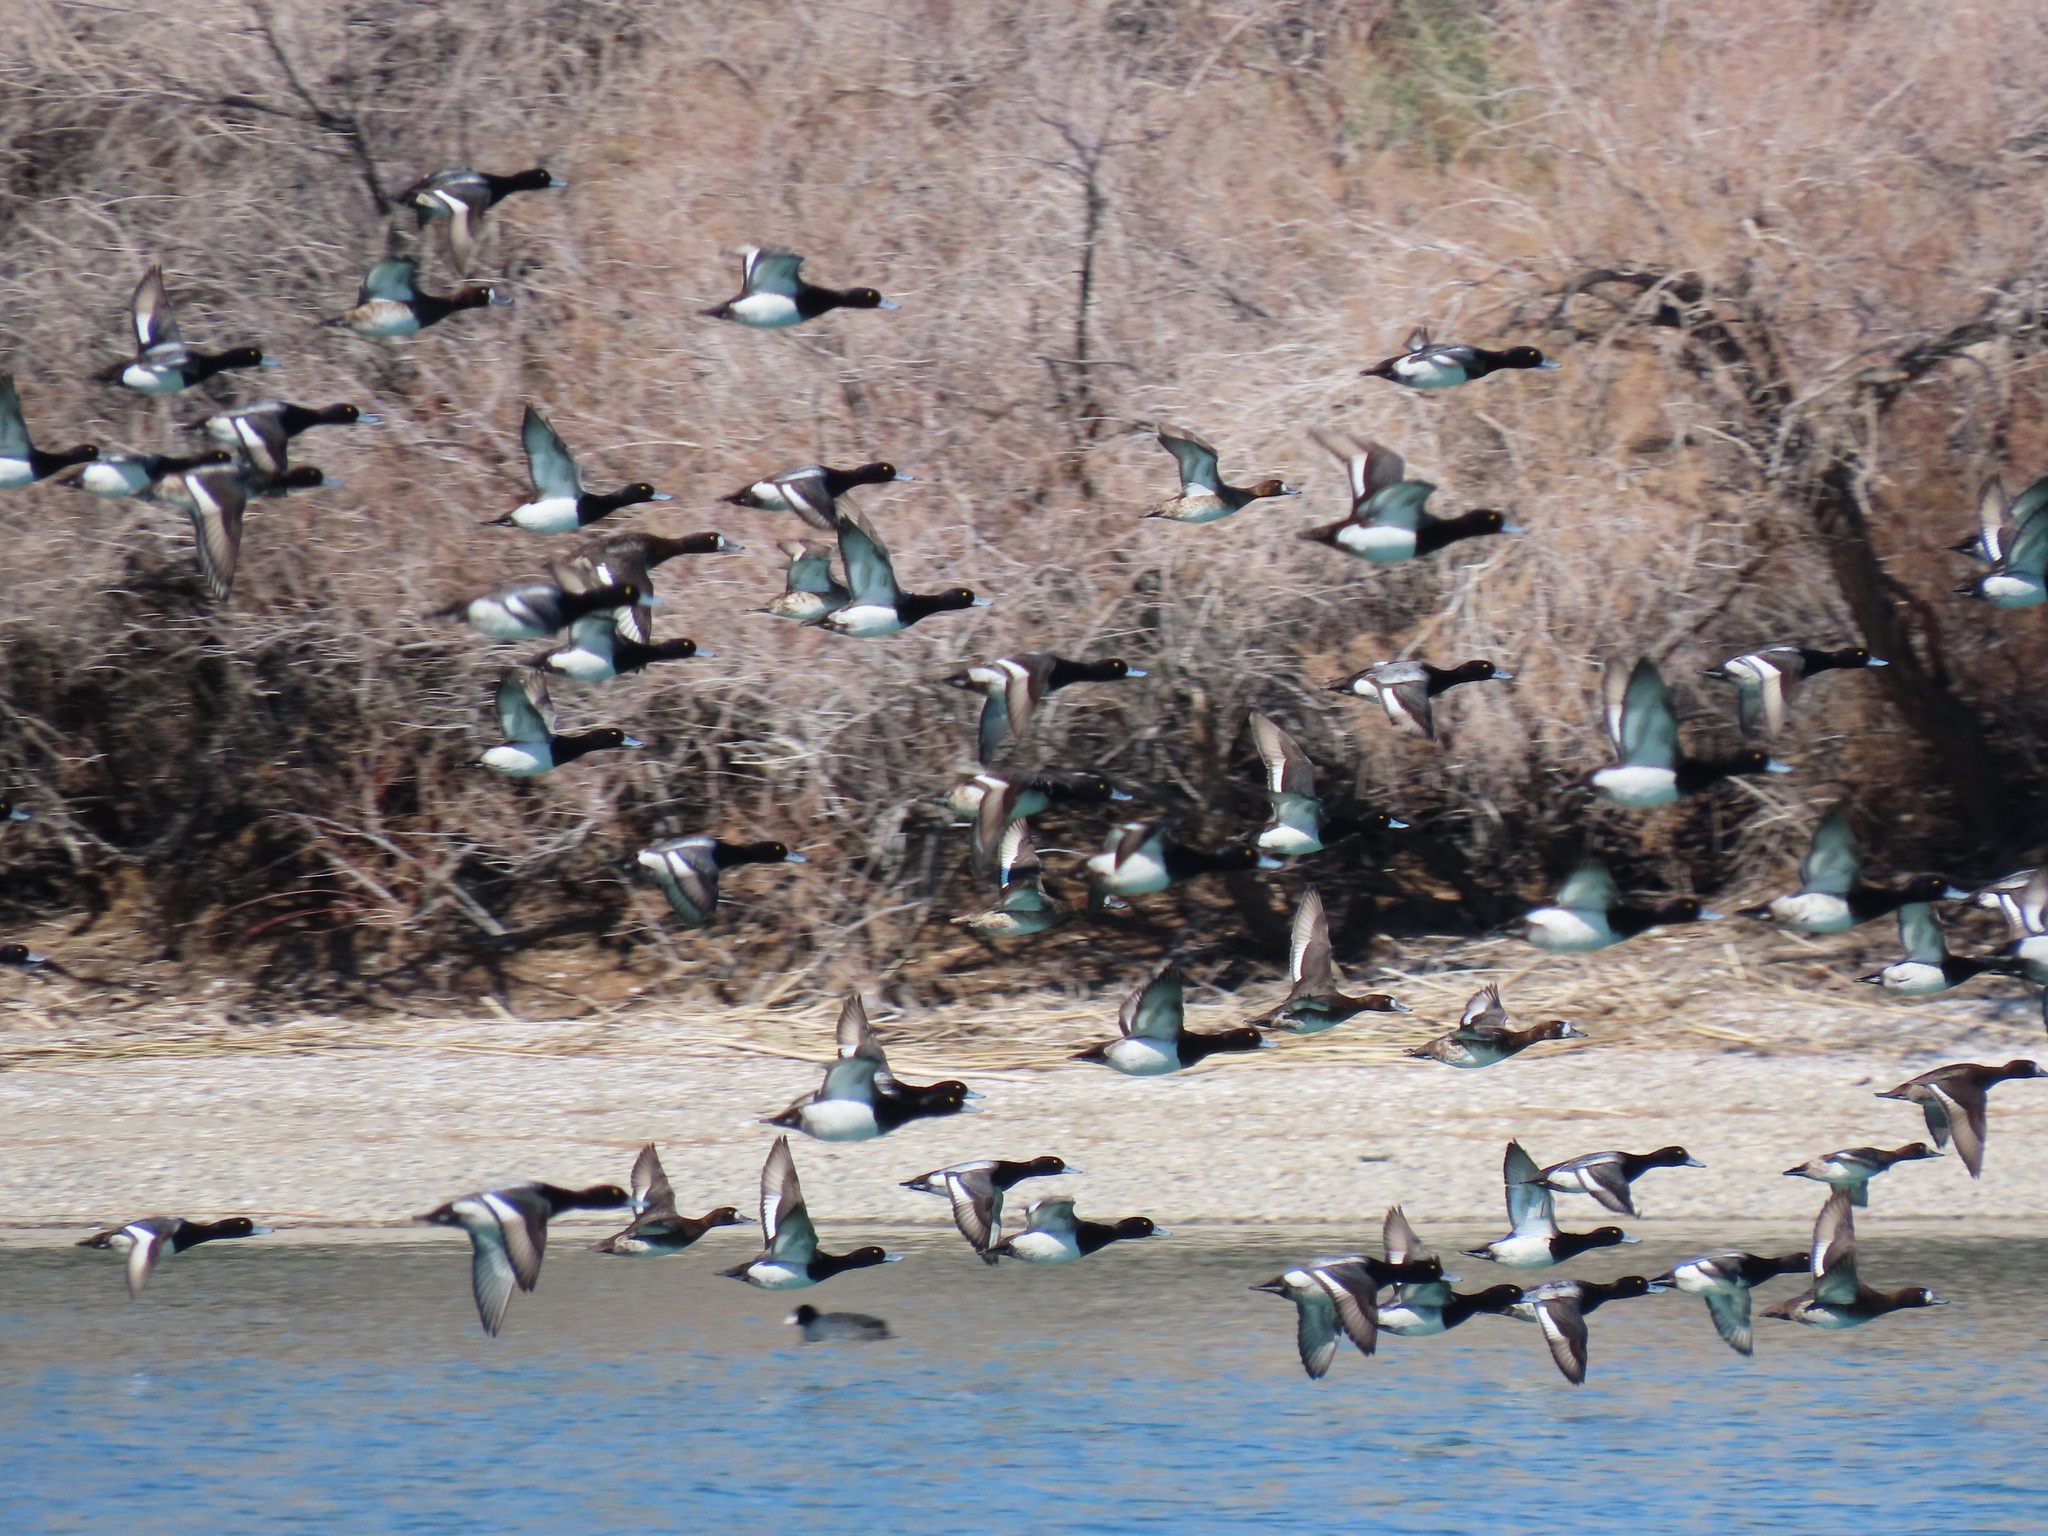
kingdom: Animalia
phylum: Chordata
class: Aves
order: Anseriformes
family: Anatidae
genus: Aythya
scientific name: Aythya marila
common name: Greater scaup
